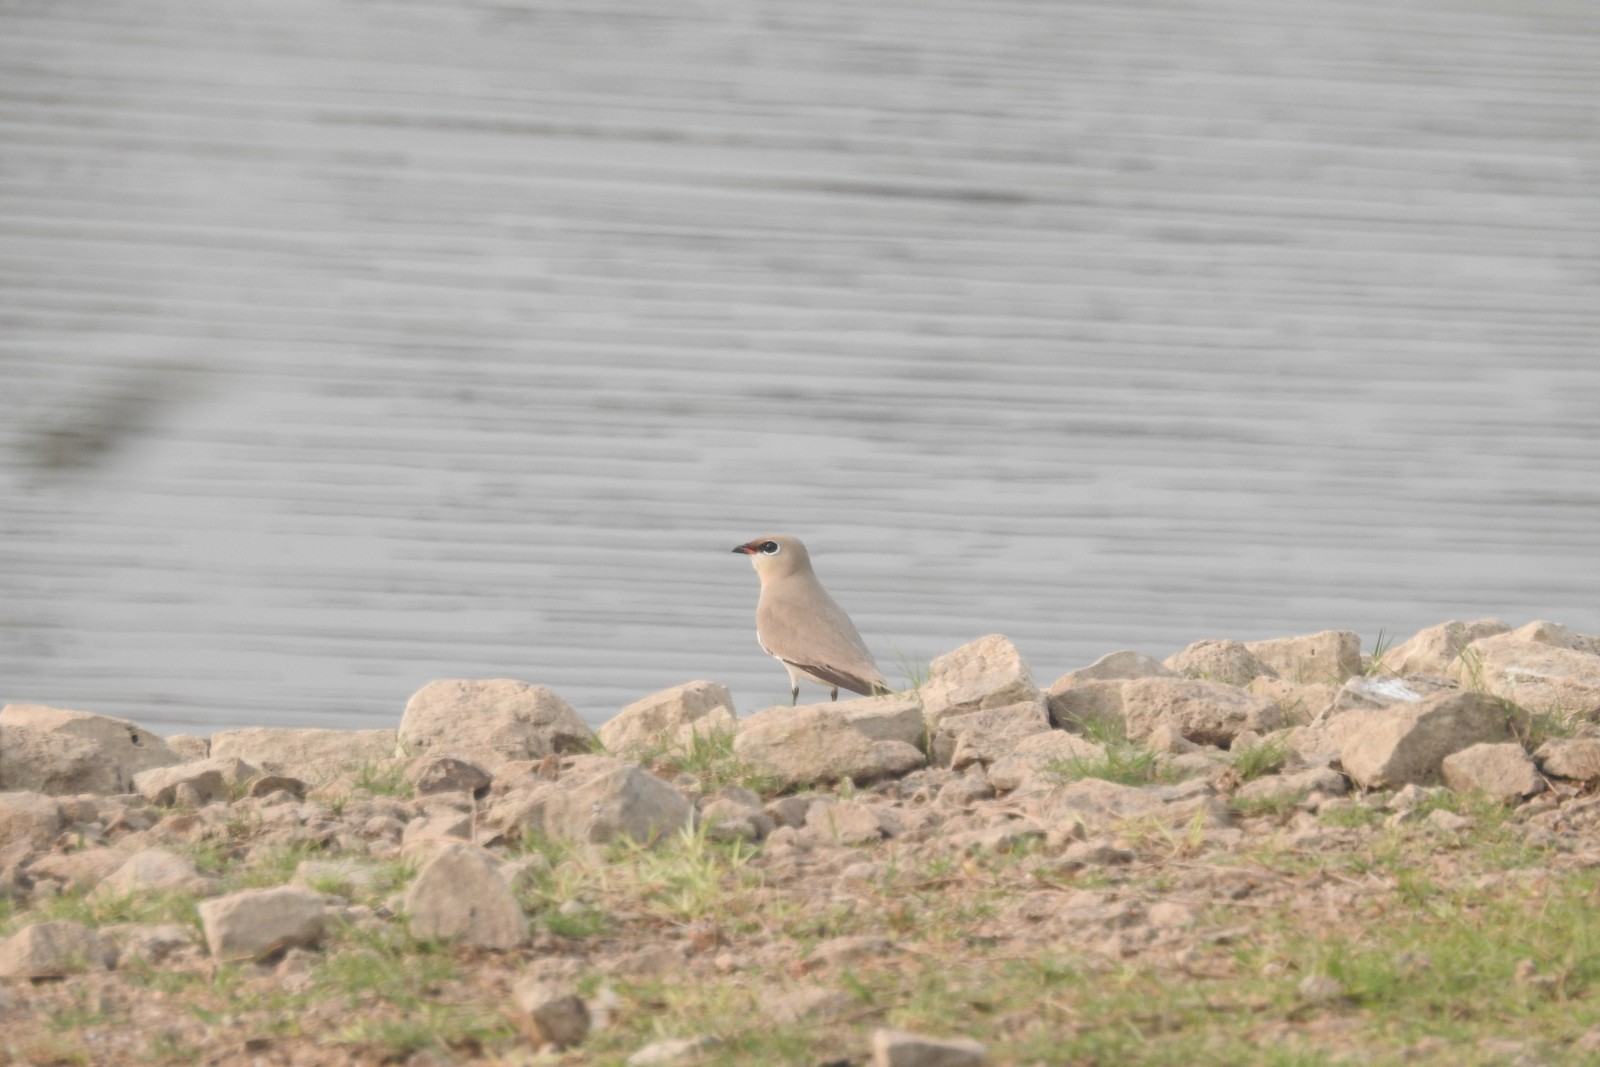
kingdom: Animalia
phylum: Chordata
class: Aves
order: Charadriiformes
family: Glareolidae
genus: Glareola
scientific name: Glareola lactea
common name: Small pratincole
